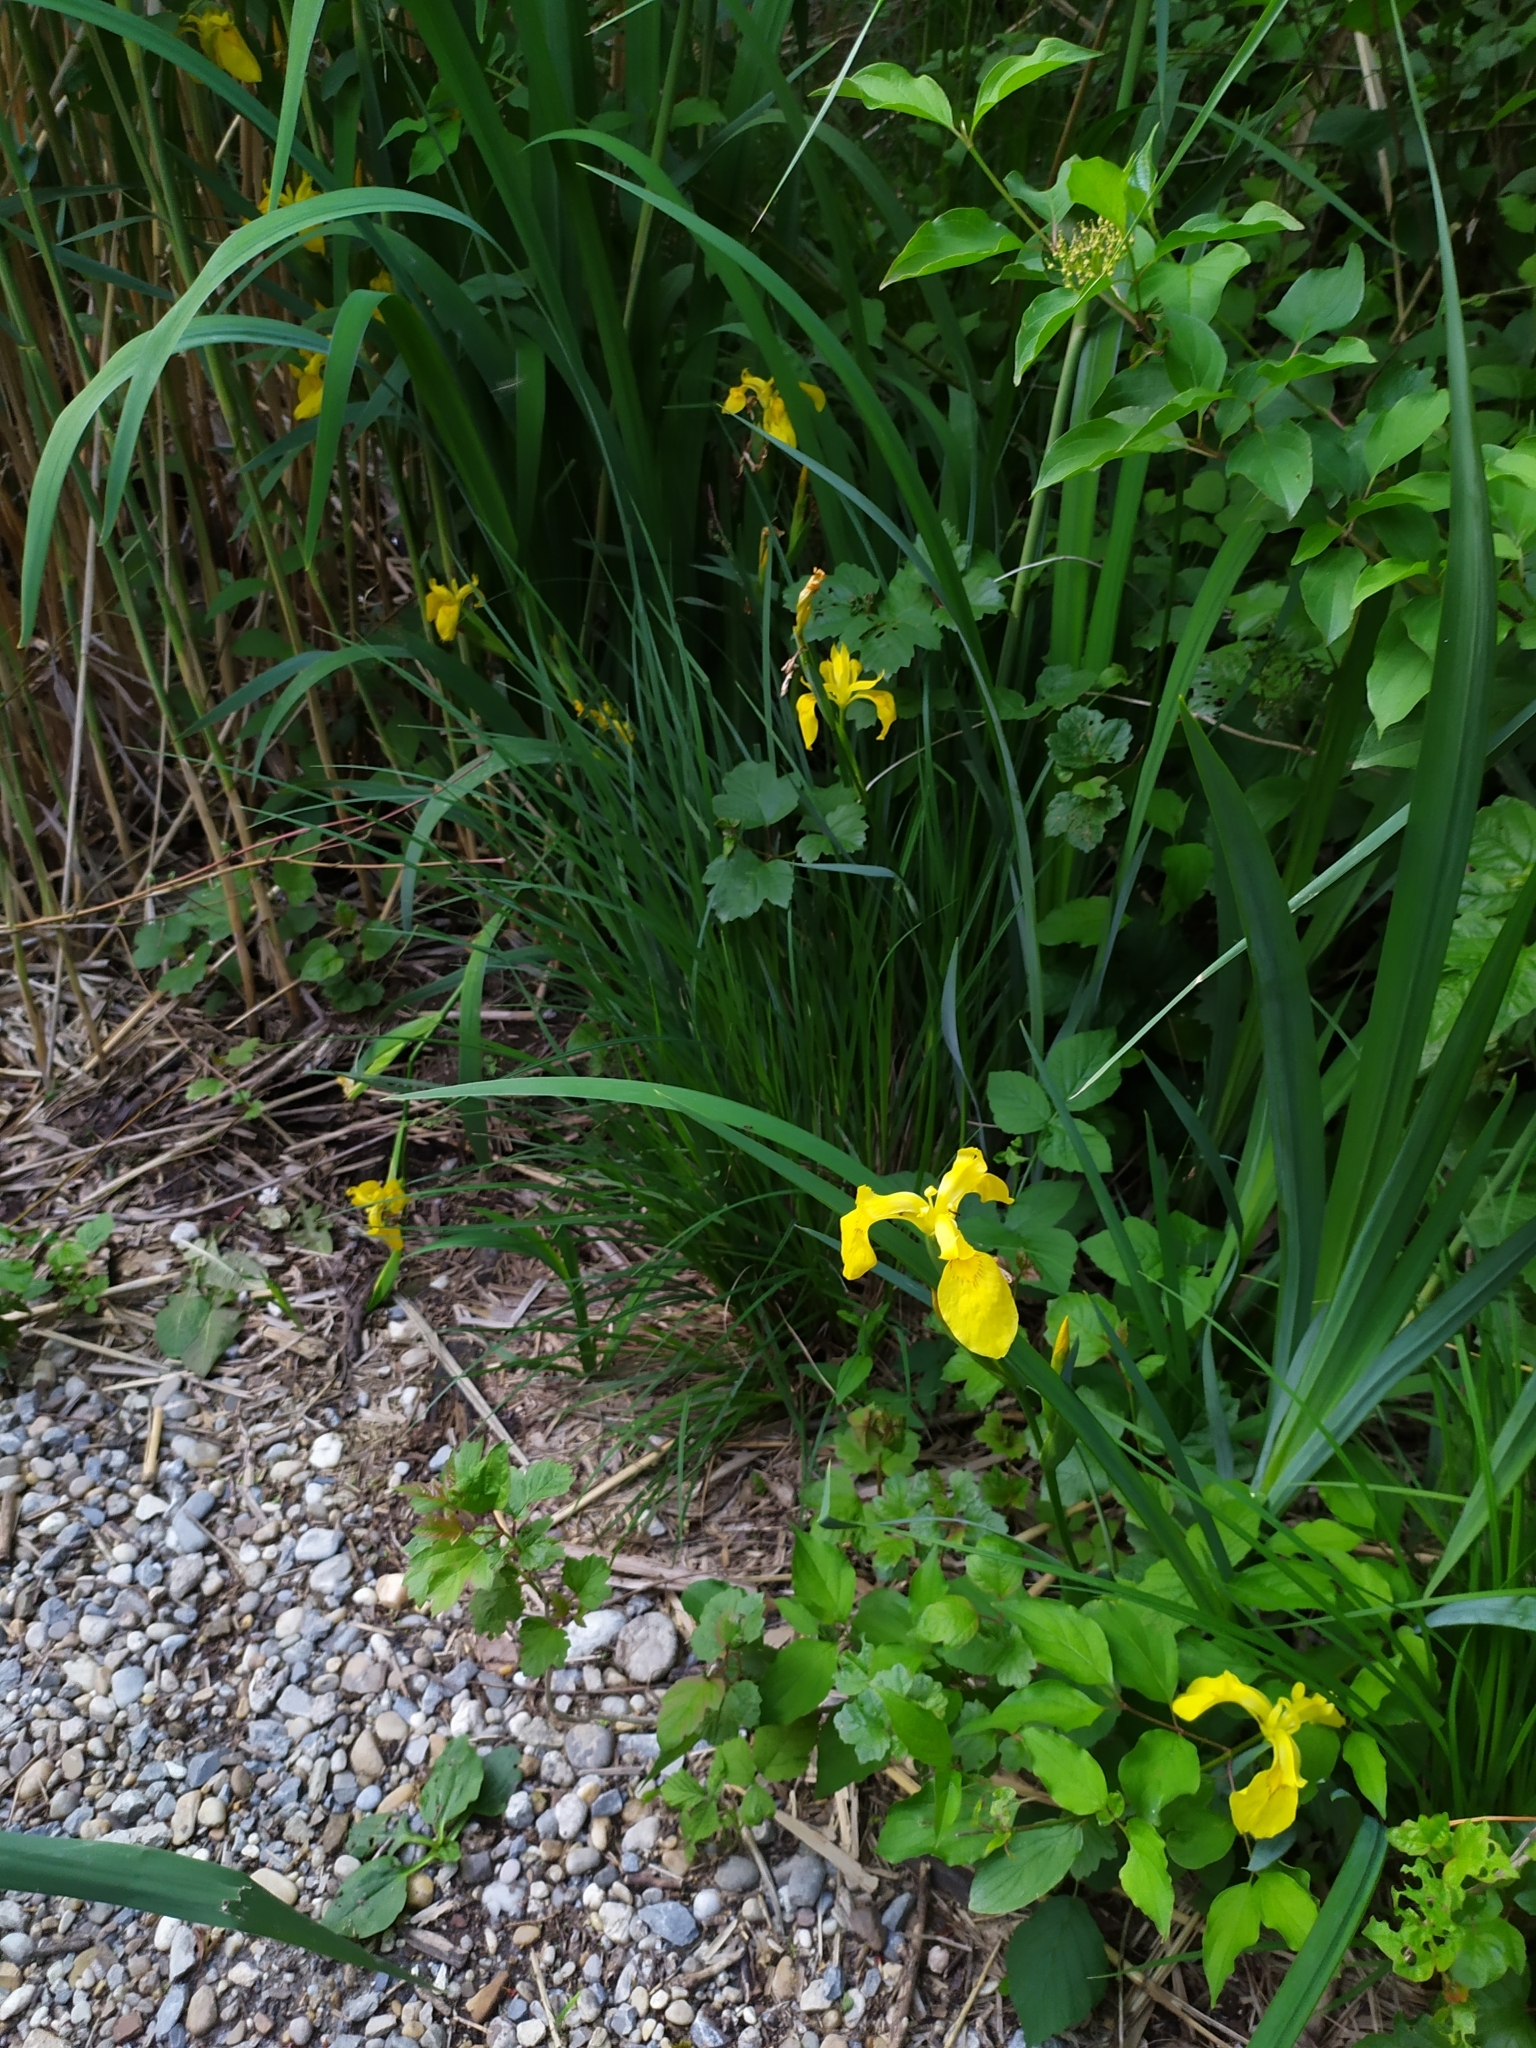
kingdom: Plantae
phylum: Tracheophyta
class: Liliopsida
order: Asparagales
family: Iridaceae
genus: Iris
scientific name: Iris pseudacorus
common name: Yellow flag
